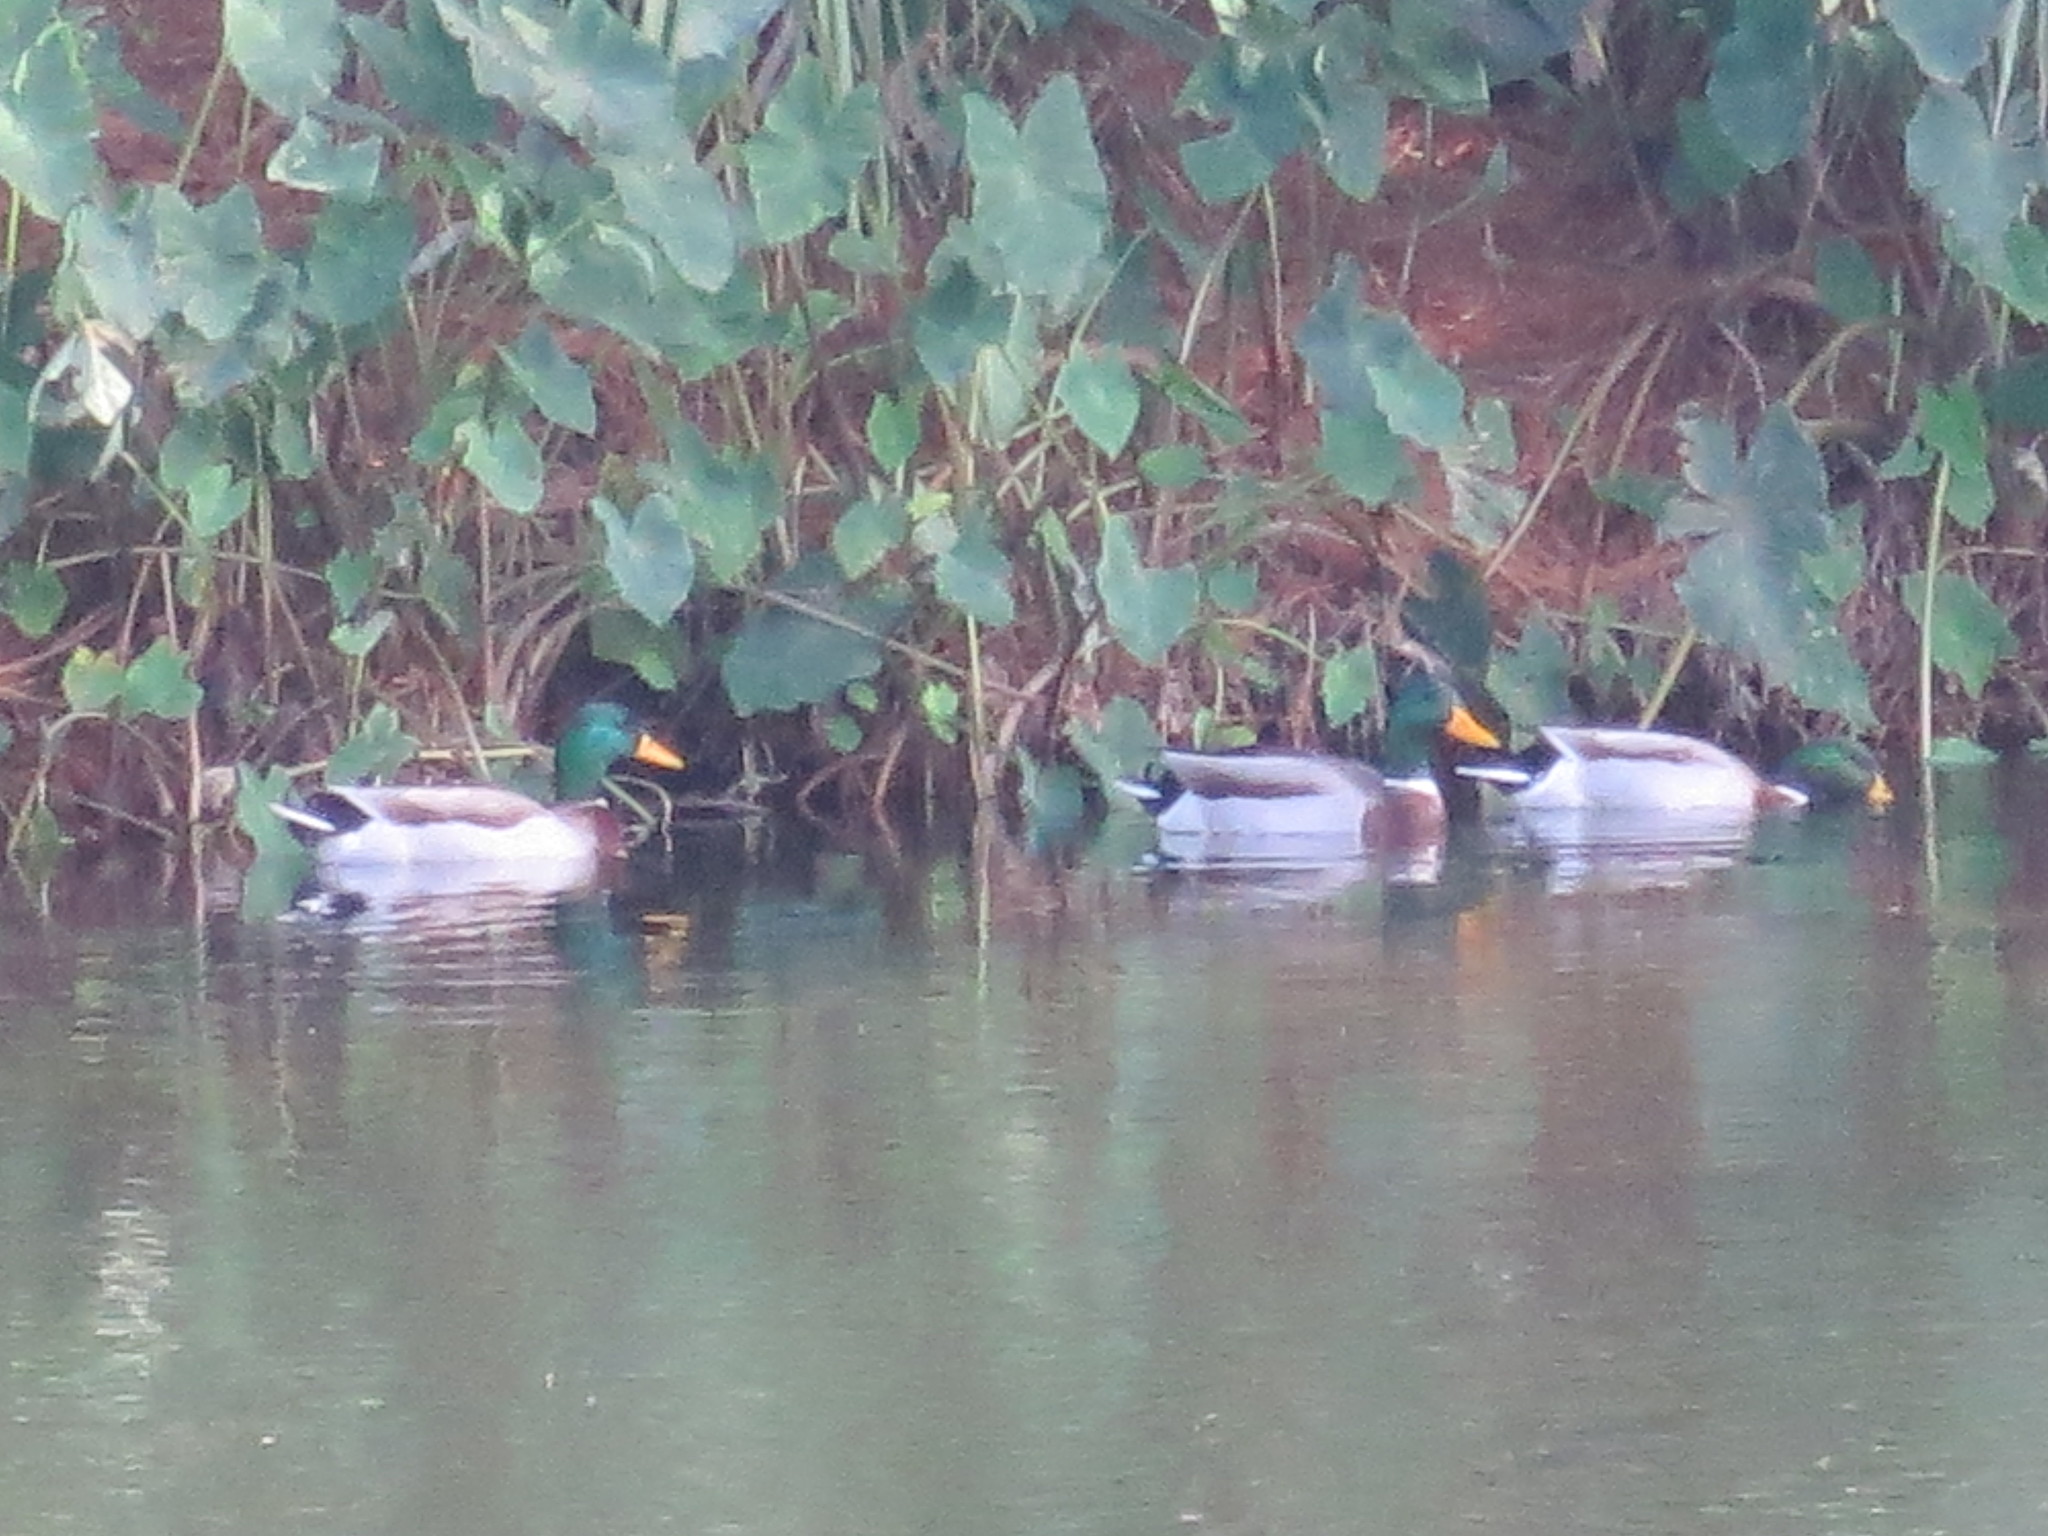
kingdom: Animalia
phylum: Chordata
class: Aves
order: Anseriformes
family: Anatidae
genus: Anas
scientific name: Anas platyrhynchos
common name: Mallard
